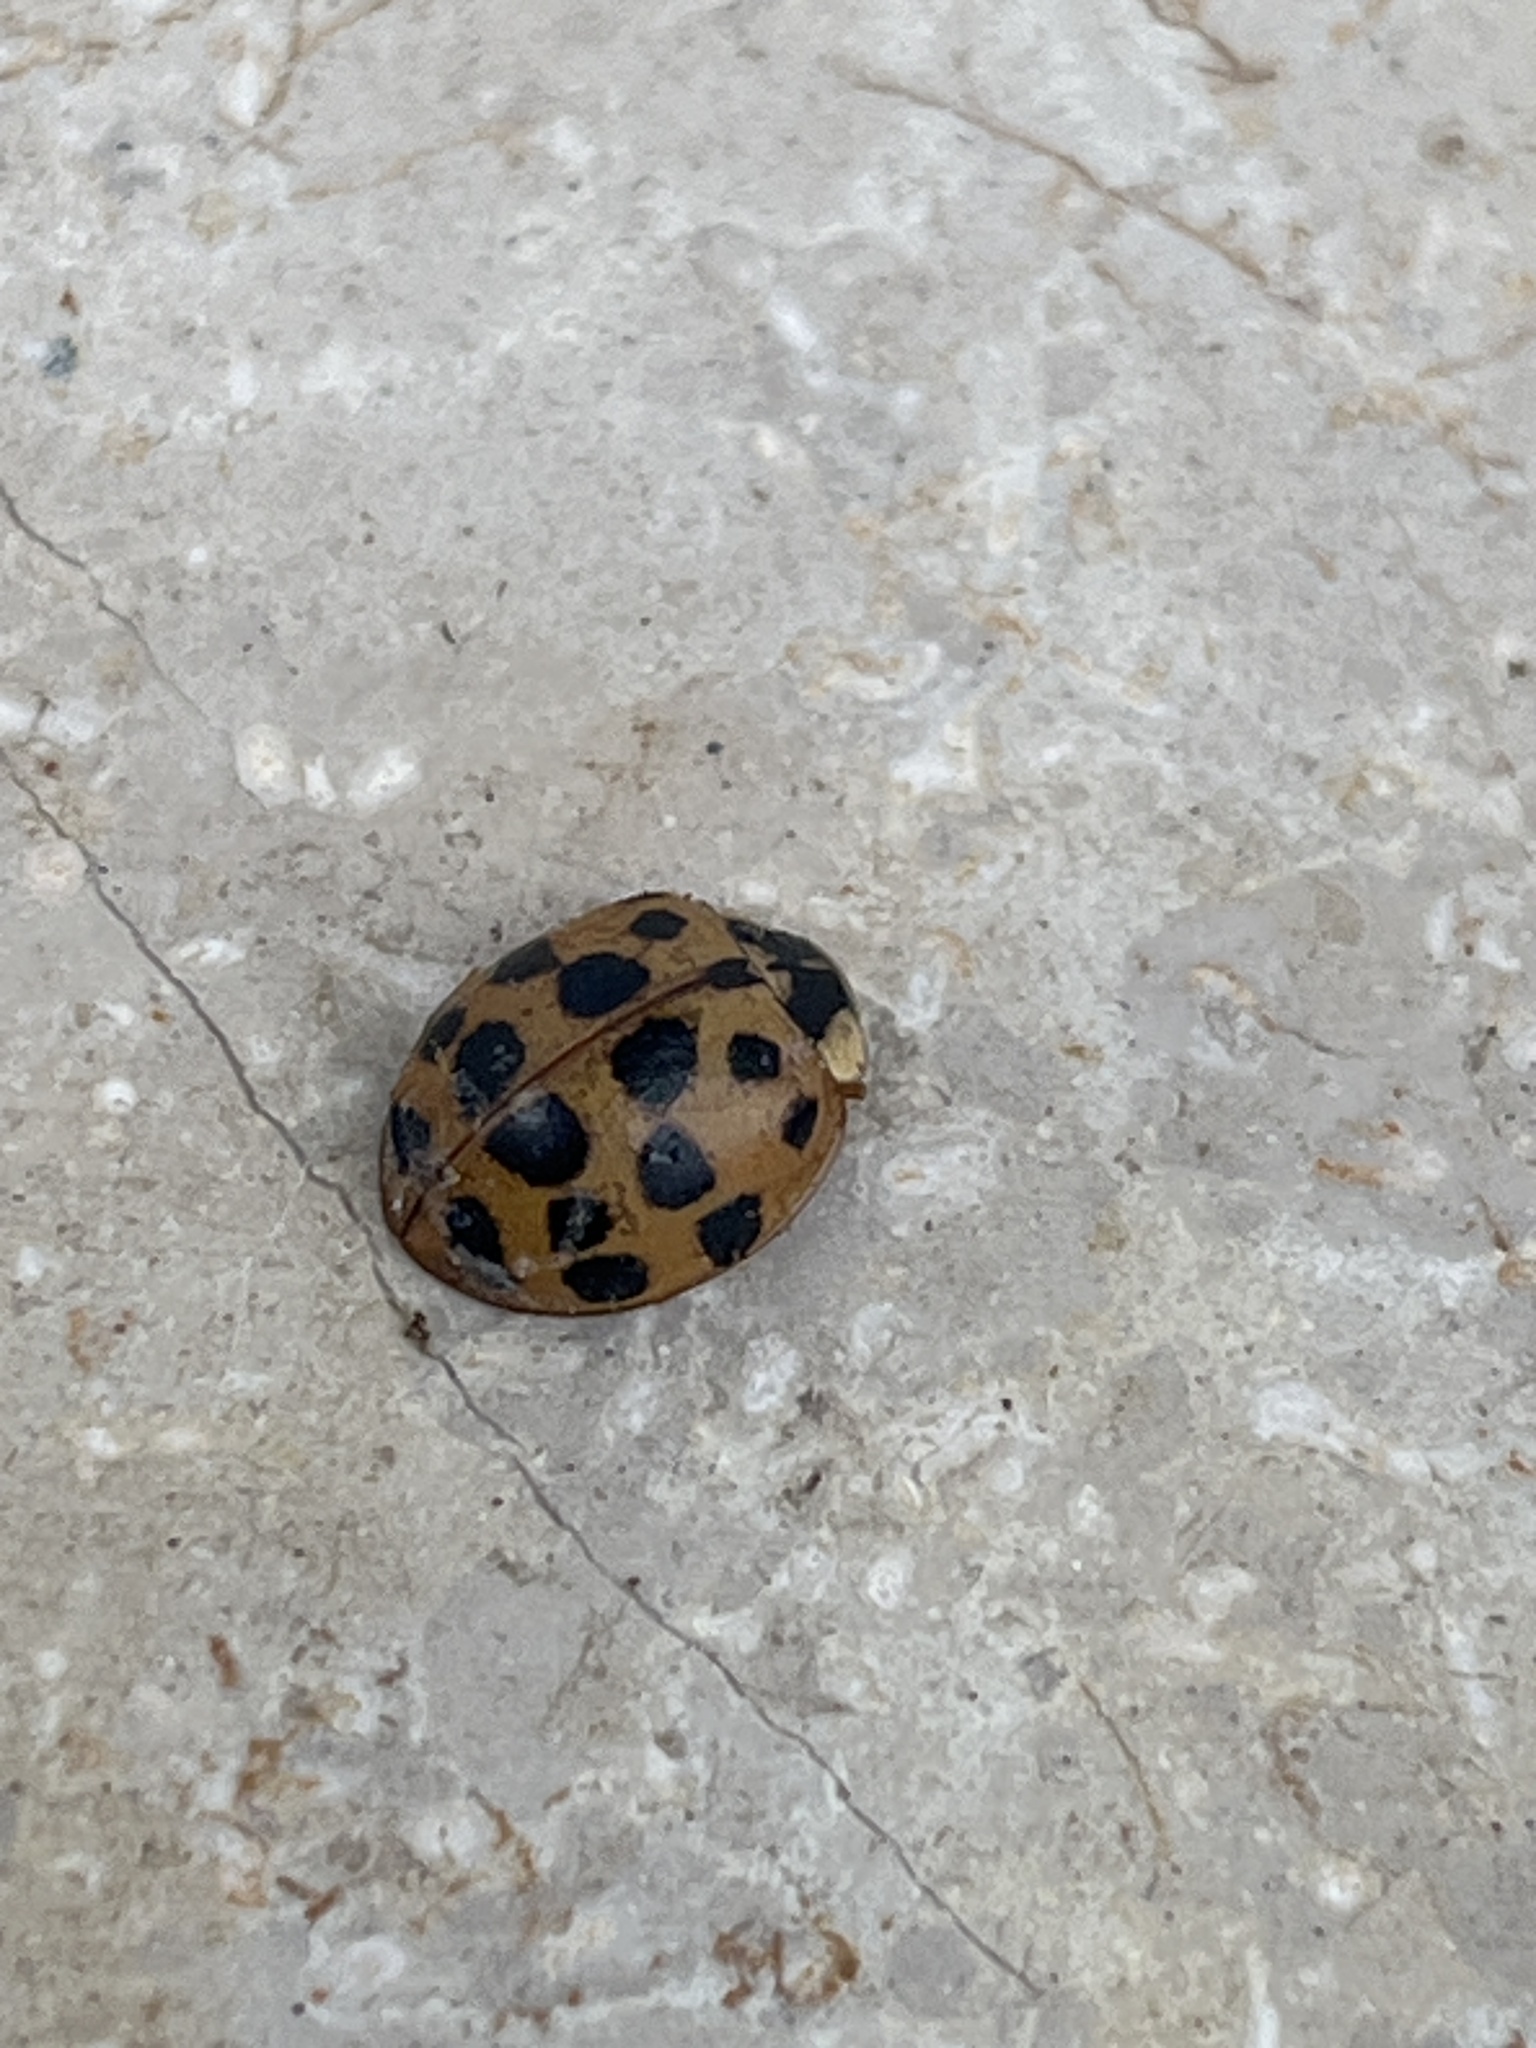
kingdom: Animalia
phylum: Arthropoda
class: Insecta
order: Coleoptera
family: Coccinellidae
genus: Harmonia
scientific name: Harmonia axyridis
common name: Harlequin ladybird
